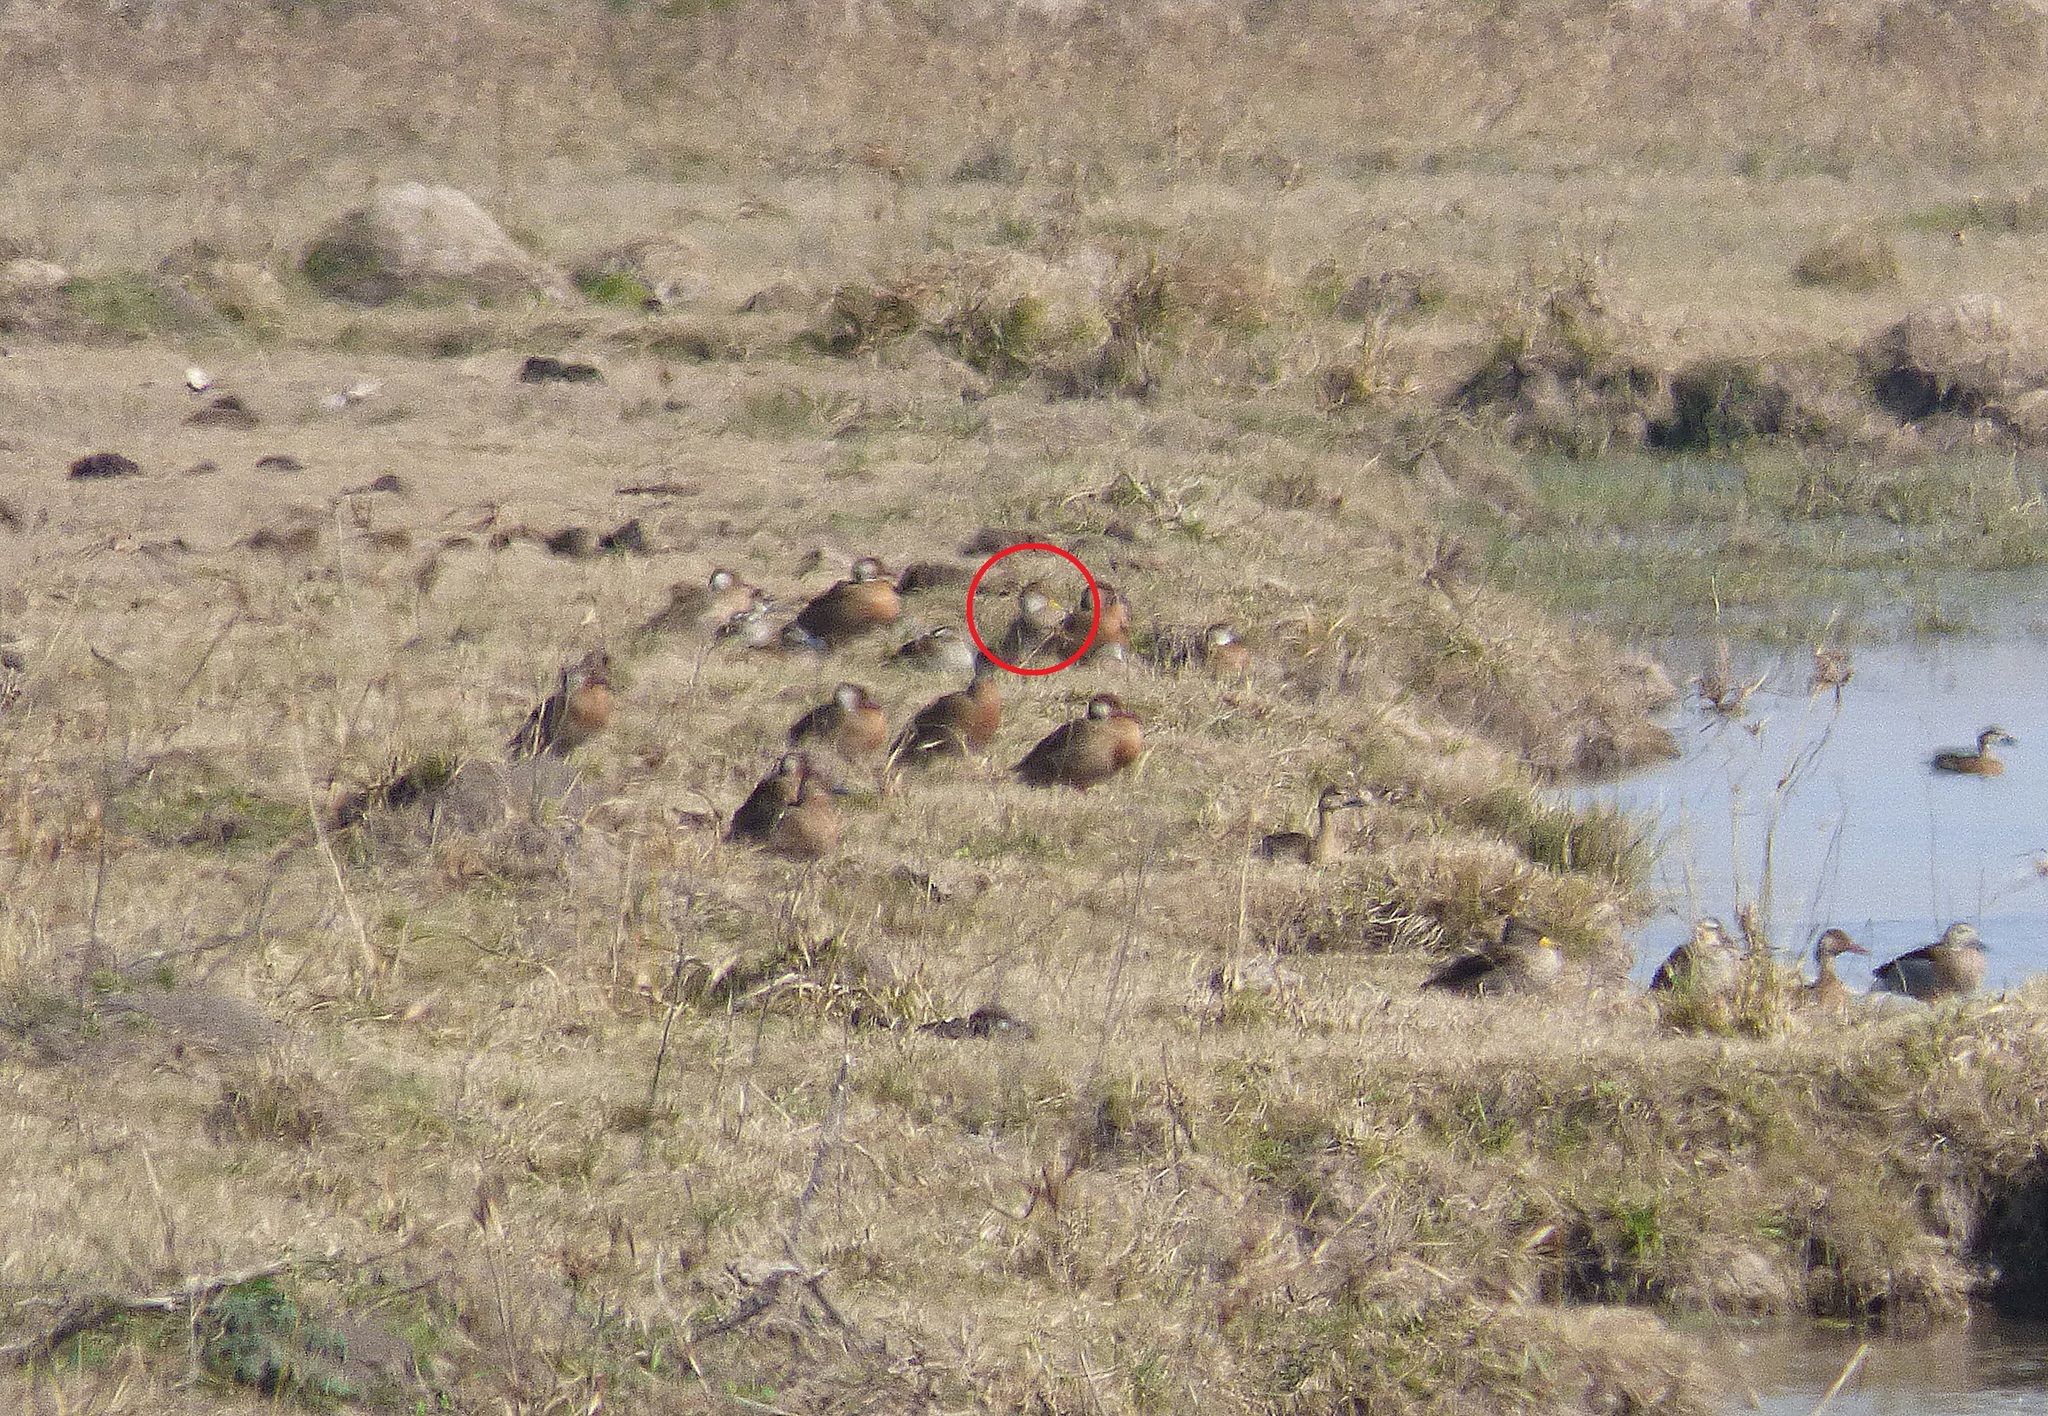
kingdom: Animalia
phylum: Chordata
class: Aves
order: Anseriformes
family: Anatidae
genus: Anas
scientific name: Anas georgica
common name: Yellow-billed pintail
